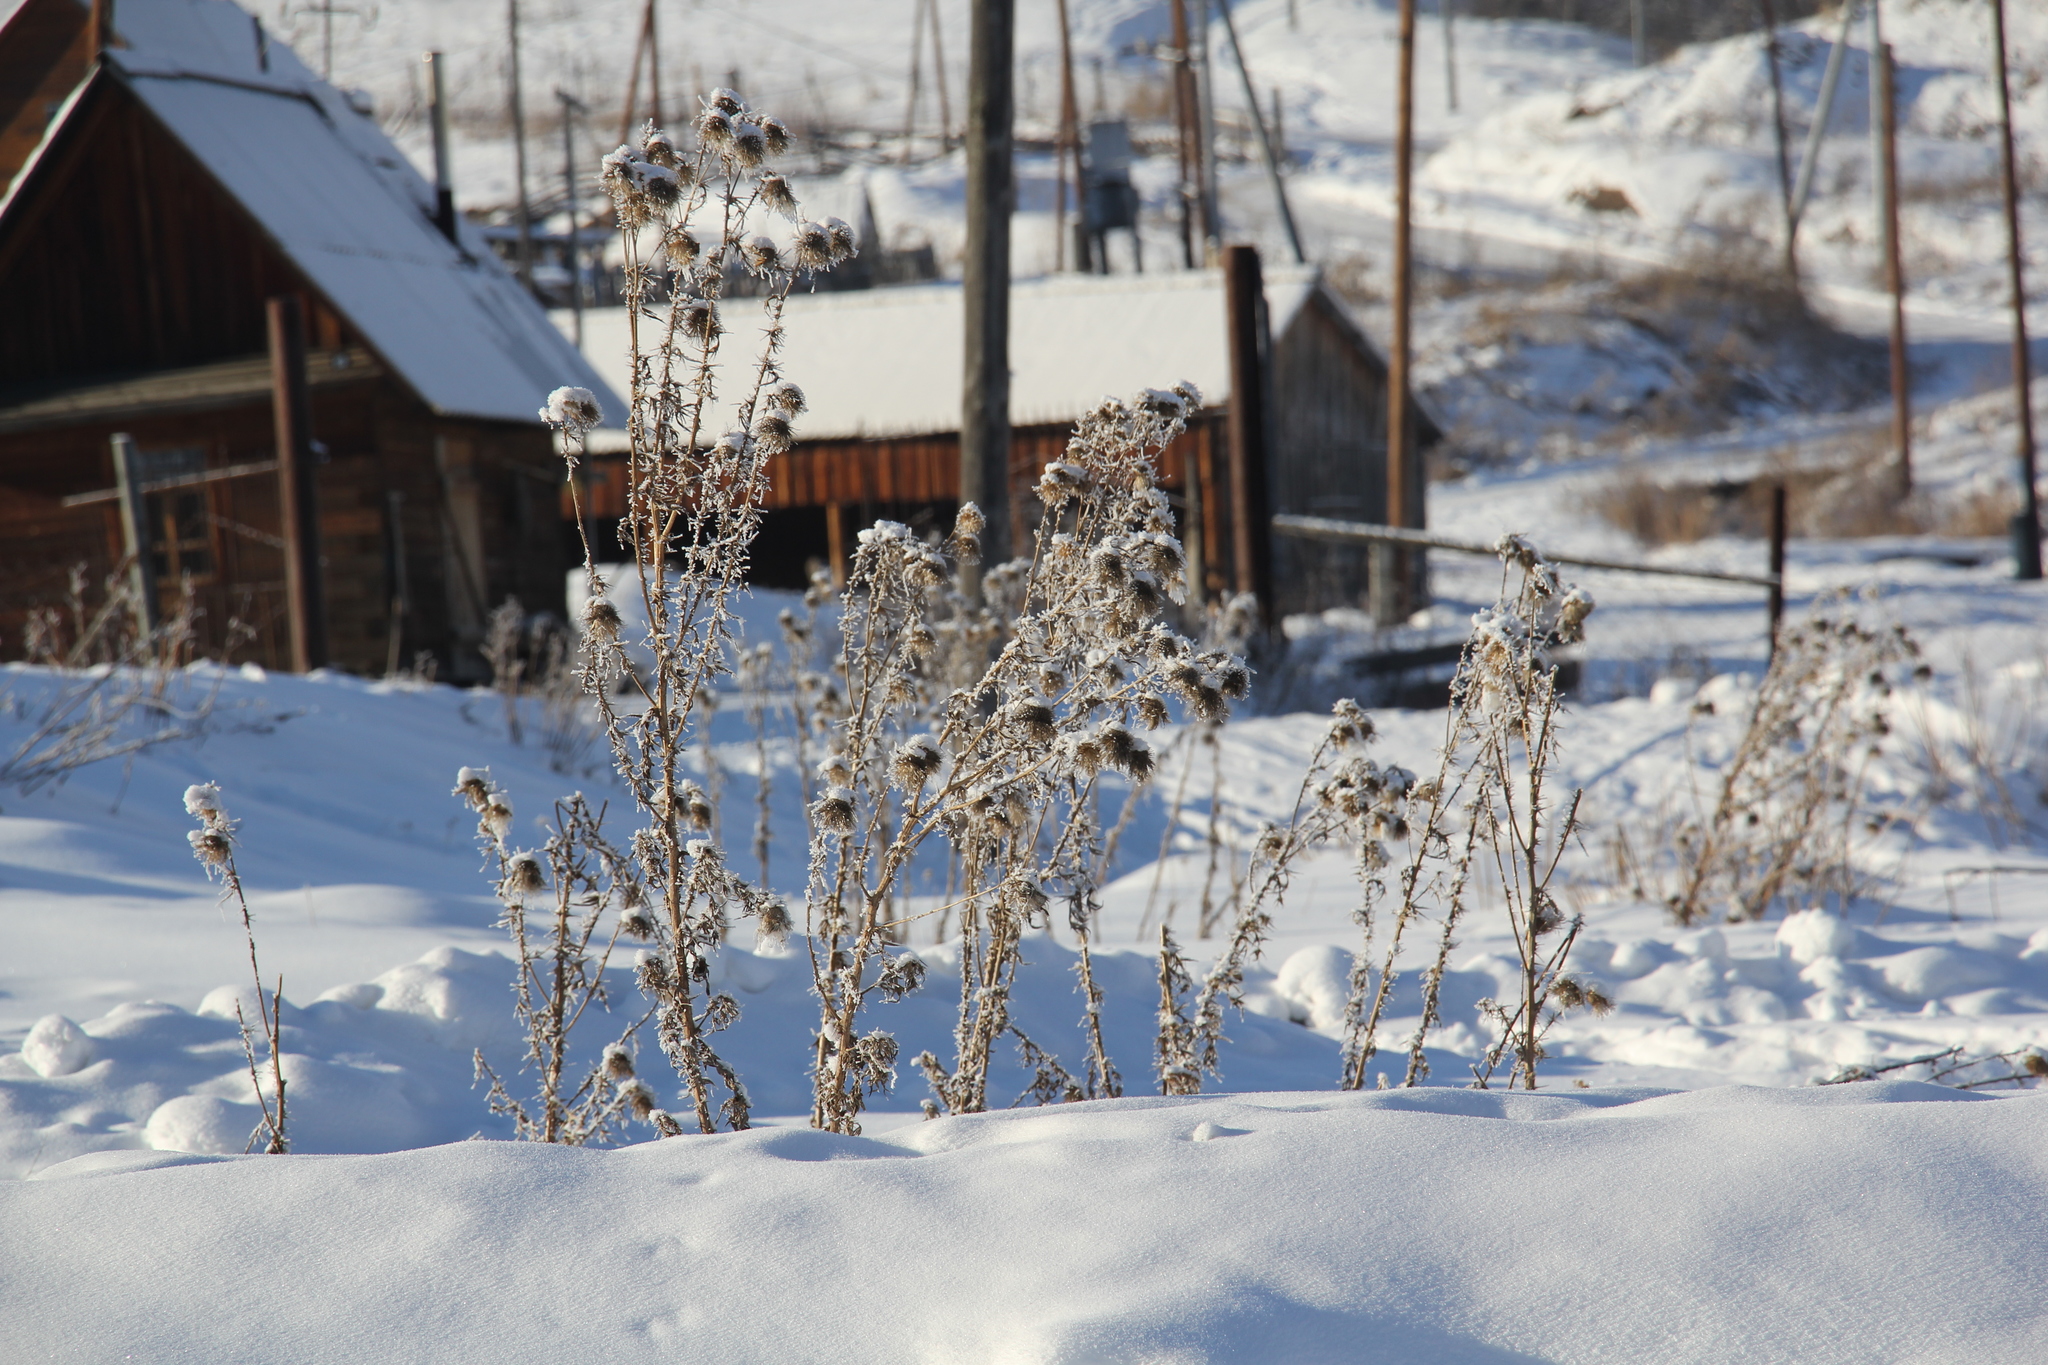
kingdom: Plantae
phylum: Tracheophyta
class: Magnoliopsida
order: Asterales
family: Asteraceae
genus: Cirsium
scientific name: Cirsium vulgare
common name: Bull thistle
